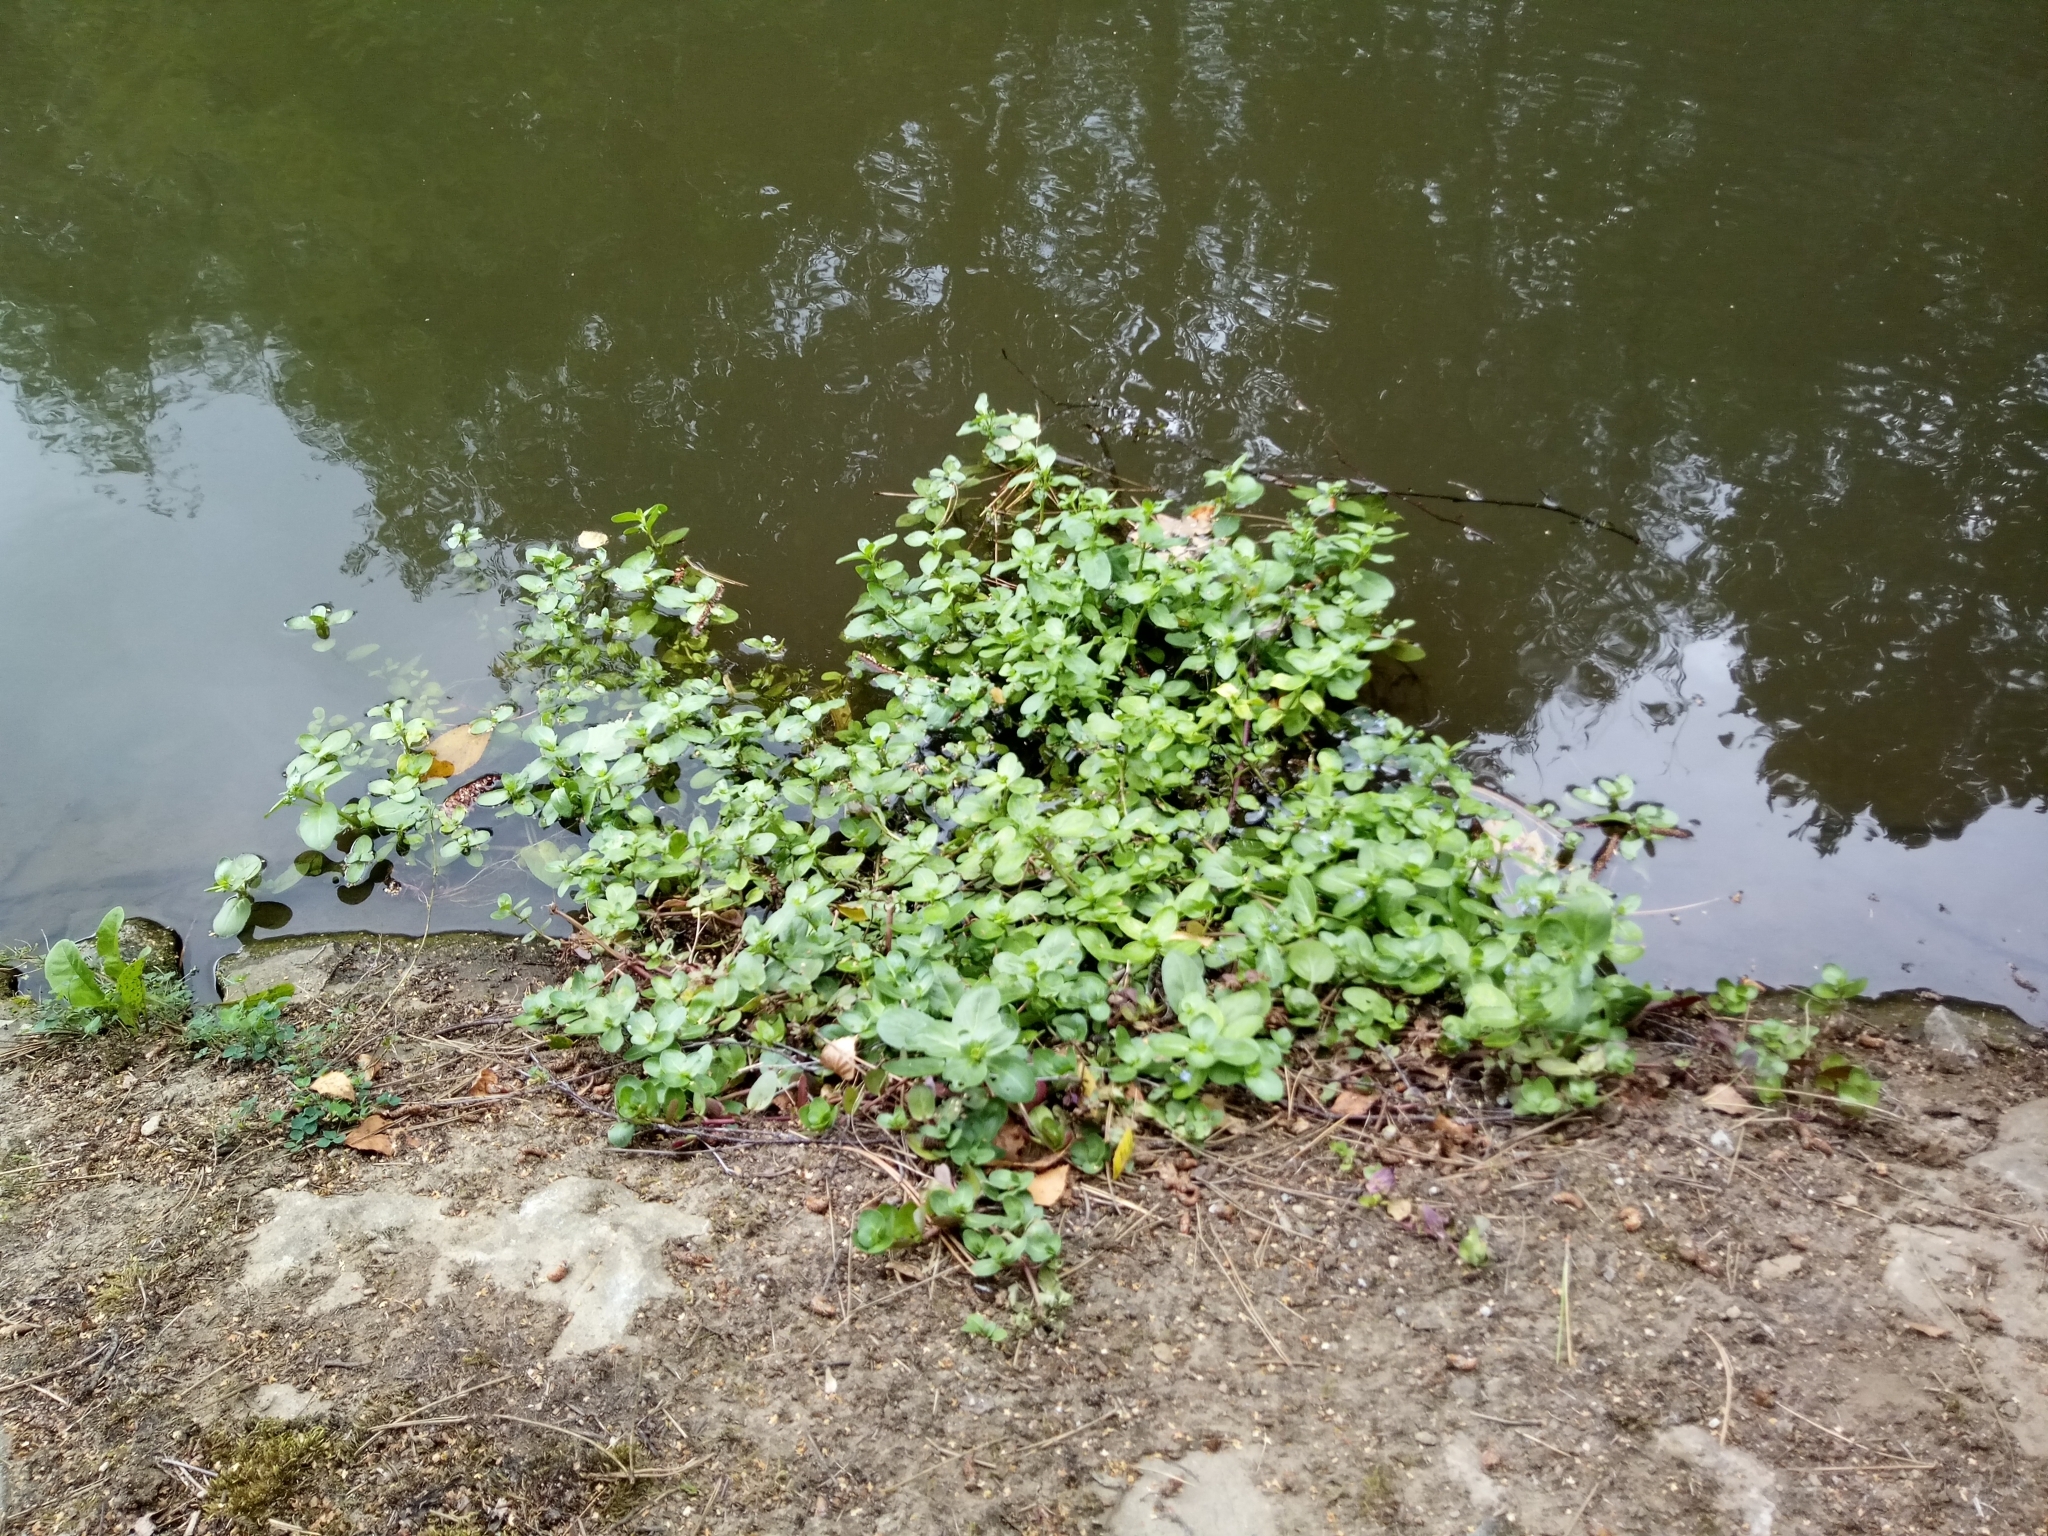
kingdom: Plantae
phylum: Tracheophyta
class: Magnoliopsida
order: Lamiales
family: Plantaginaceae
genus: Veronica
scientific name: Veronica beccabunga
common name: Brooklime
